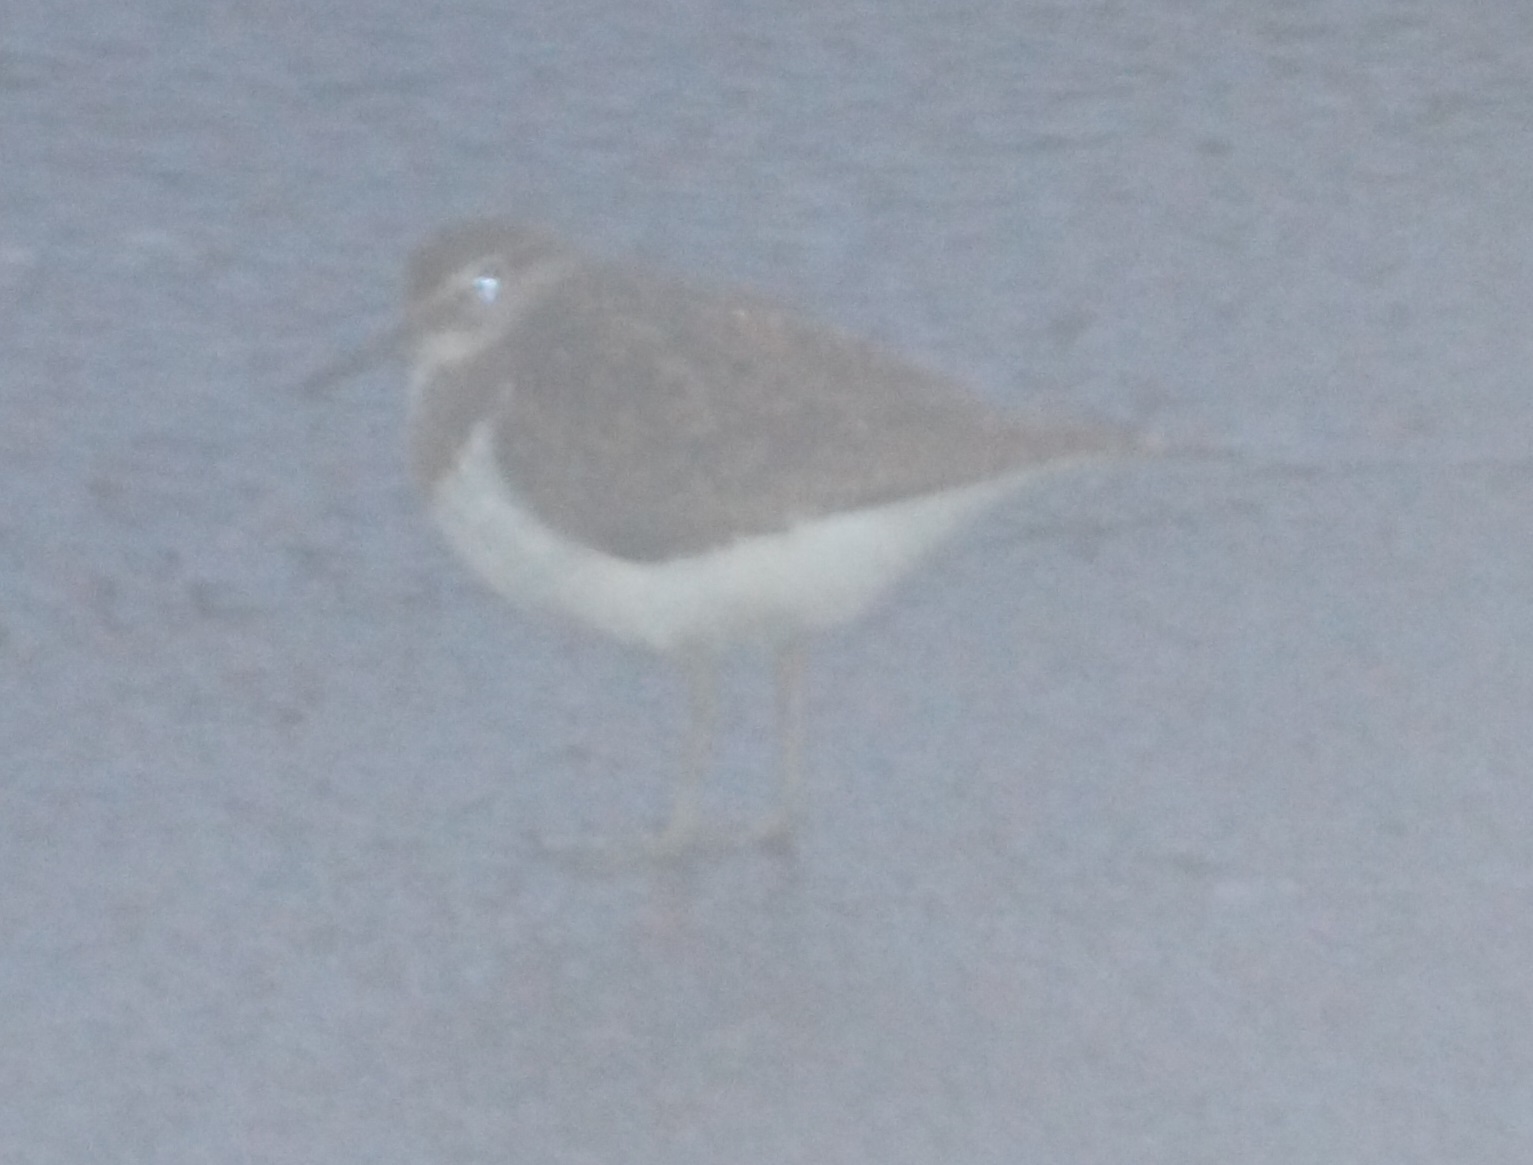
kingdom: Animalia
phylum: Chordata
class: Aves
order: Charadriiformes
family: Scolopacidae
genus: Actitis
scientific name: Actitis hypoleucos
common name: Common sandpiper
